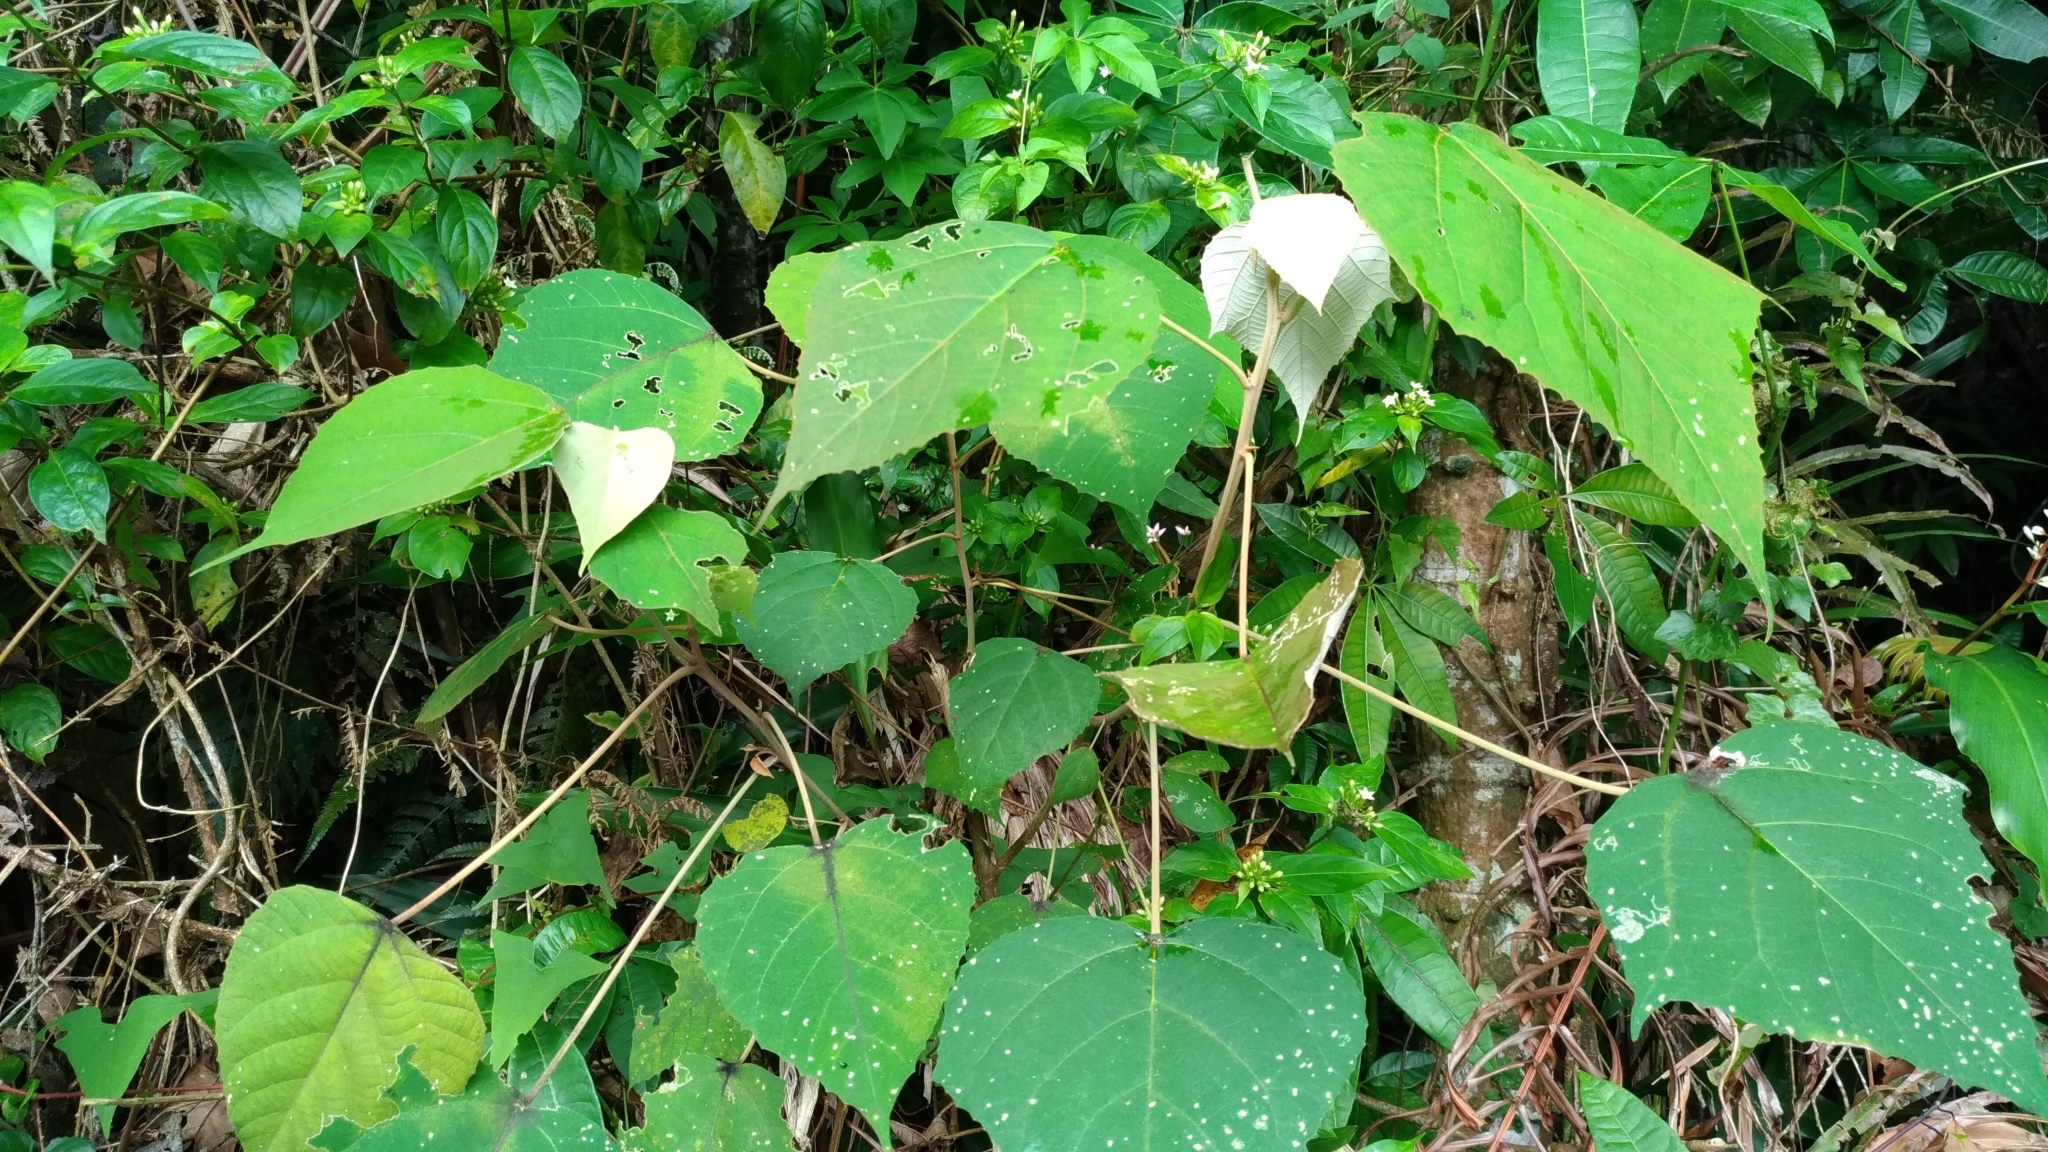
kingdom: Plantae
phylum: Tracheophyta
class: Magnoliopsida
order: Malpighiales
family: Euphorbiaceae
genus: Mallotus
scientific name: Mallotus paniculatus
